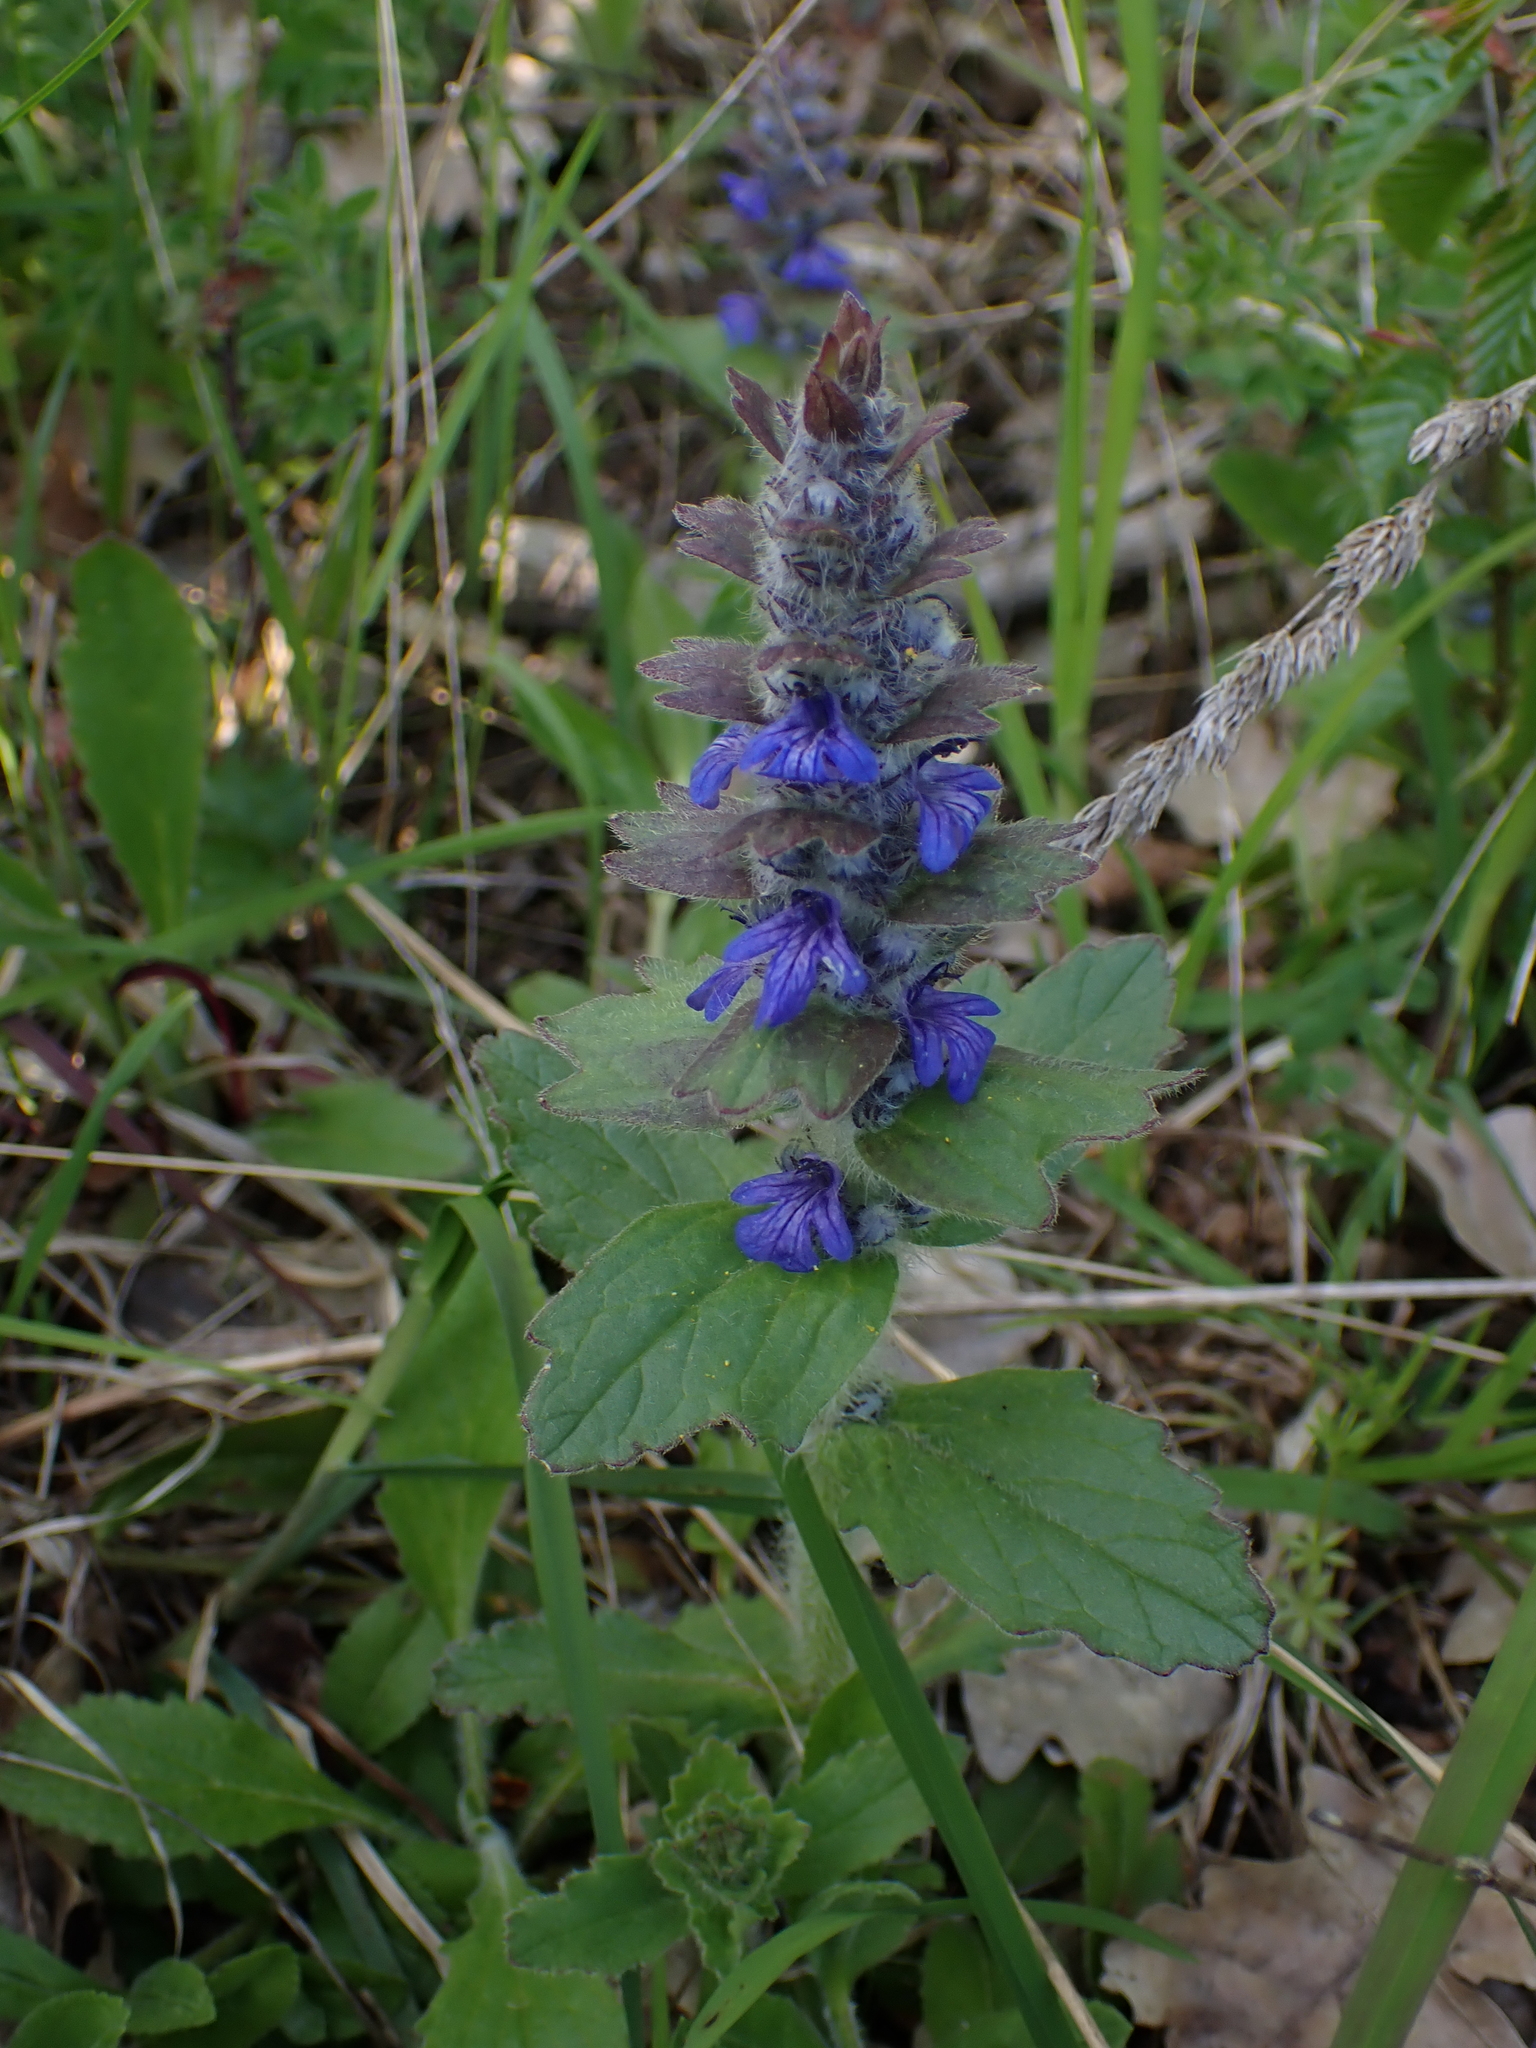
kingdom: Plantae
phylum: Tracheophyta
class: Magnoliopsida
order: Lamiales
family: Lamiaceae
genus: Ajuga
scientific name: Ajuga genevensis
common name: Blue bugle
